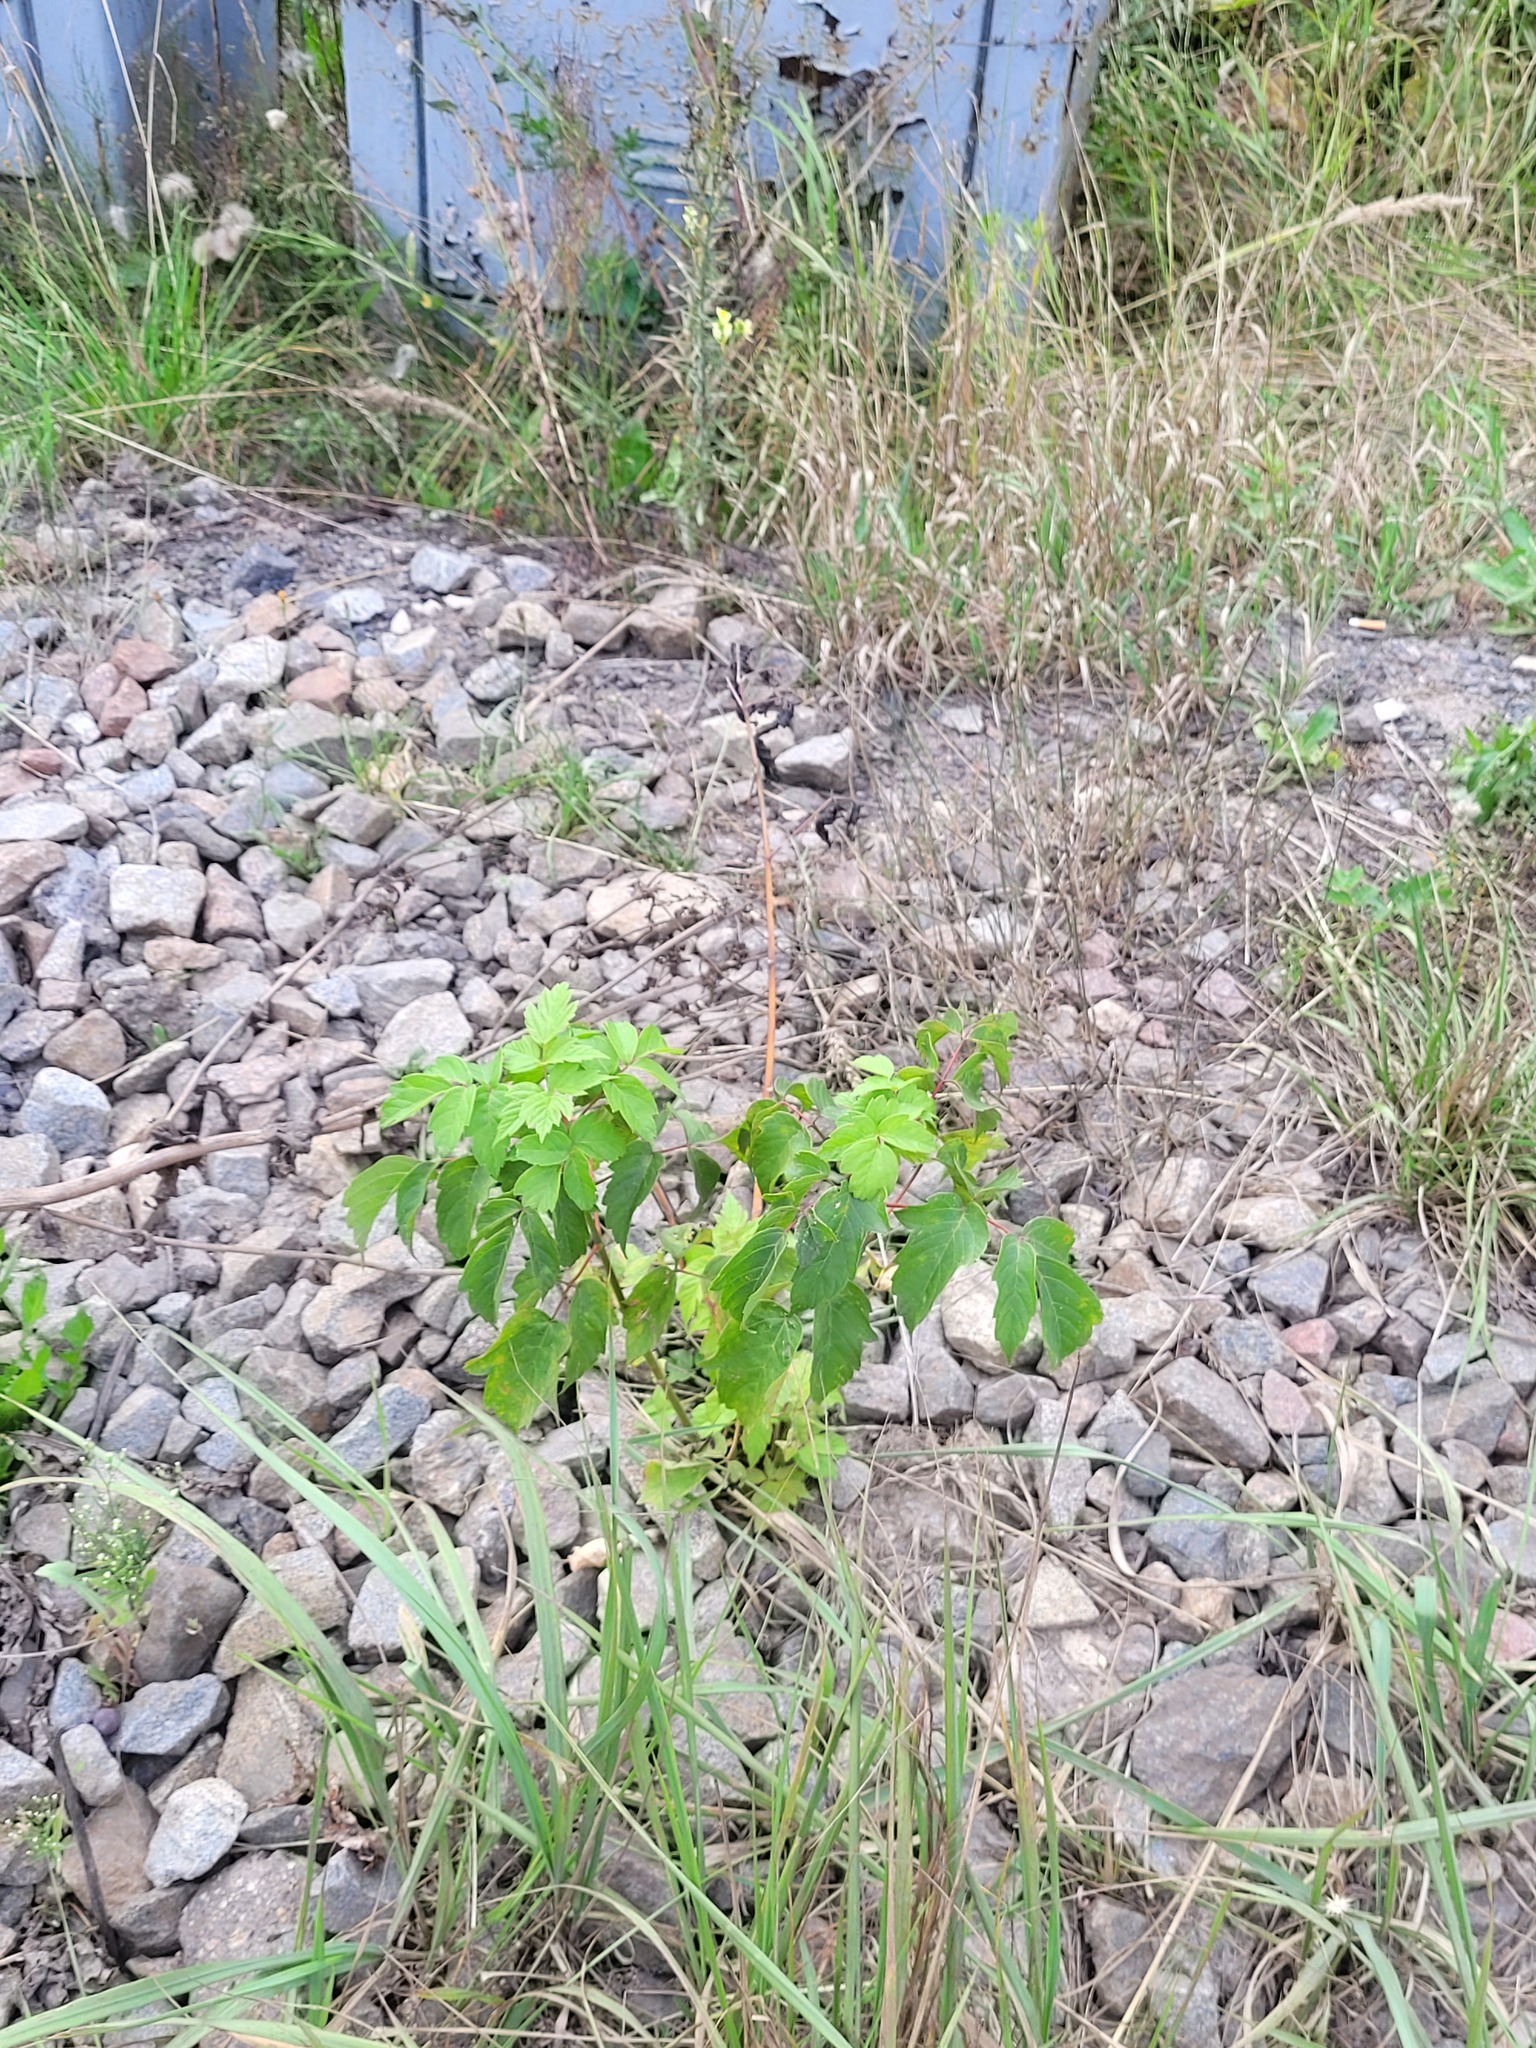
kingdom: Plantae
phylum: Tracheophyta
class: Magnoliopsida
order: Sapindales
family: Sapindaceae
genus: Acer
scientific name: Acer negundo
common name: Ashleaf maple
